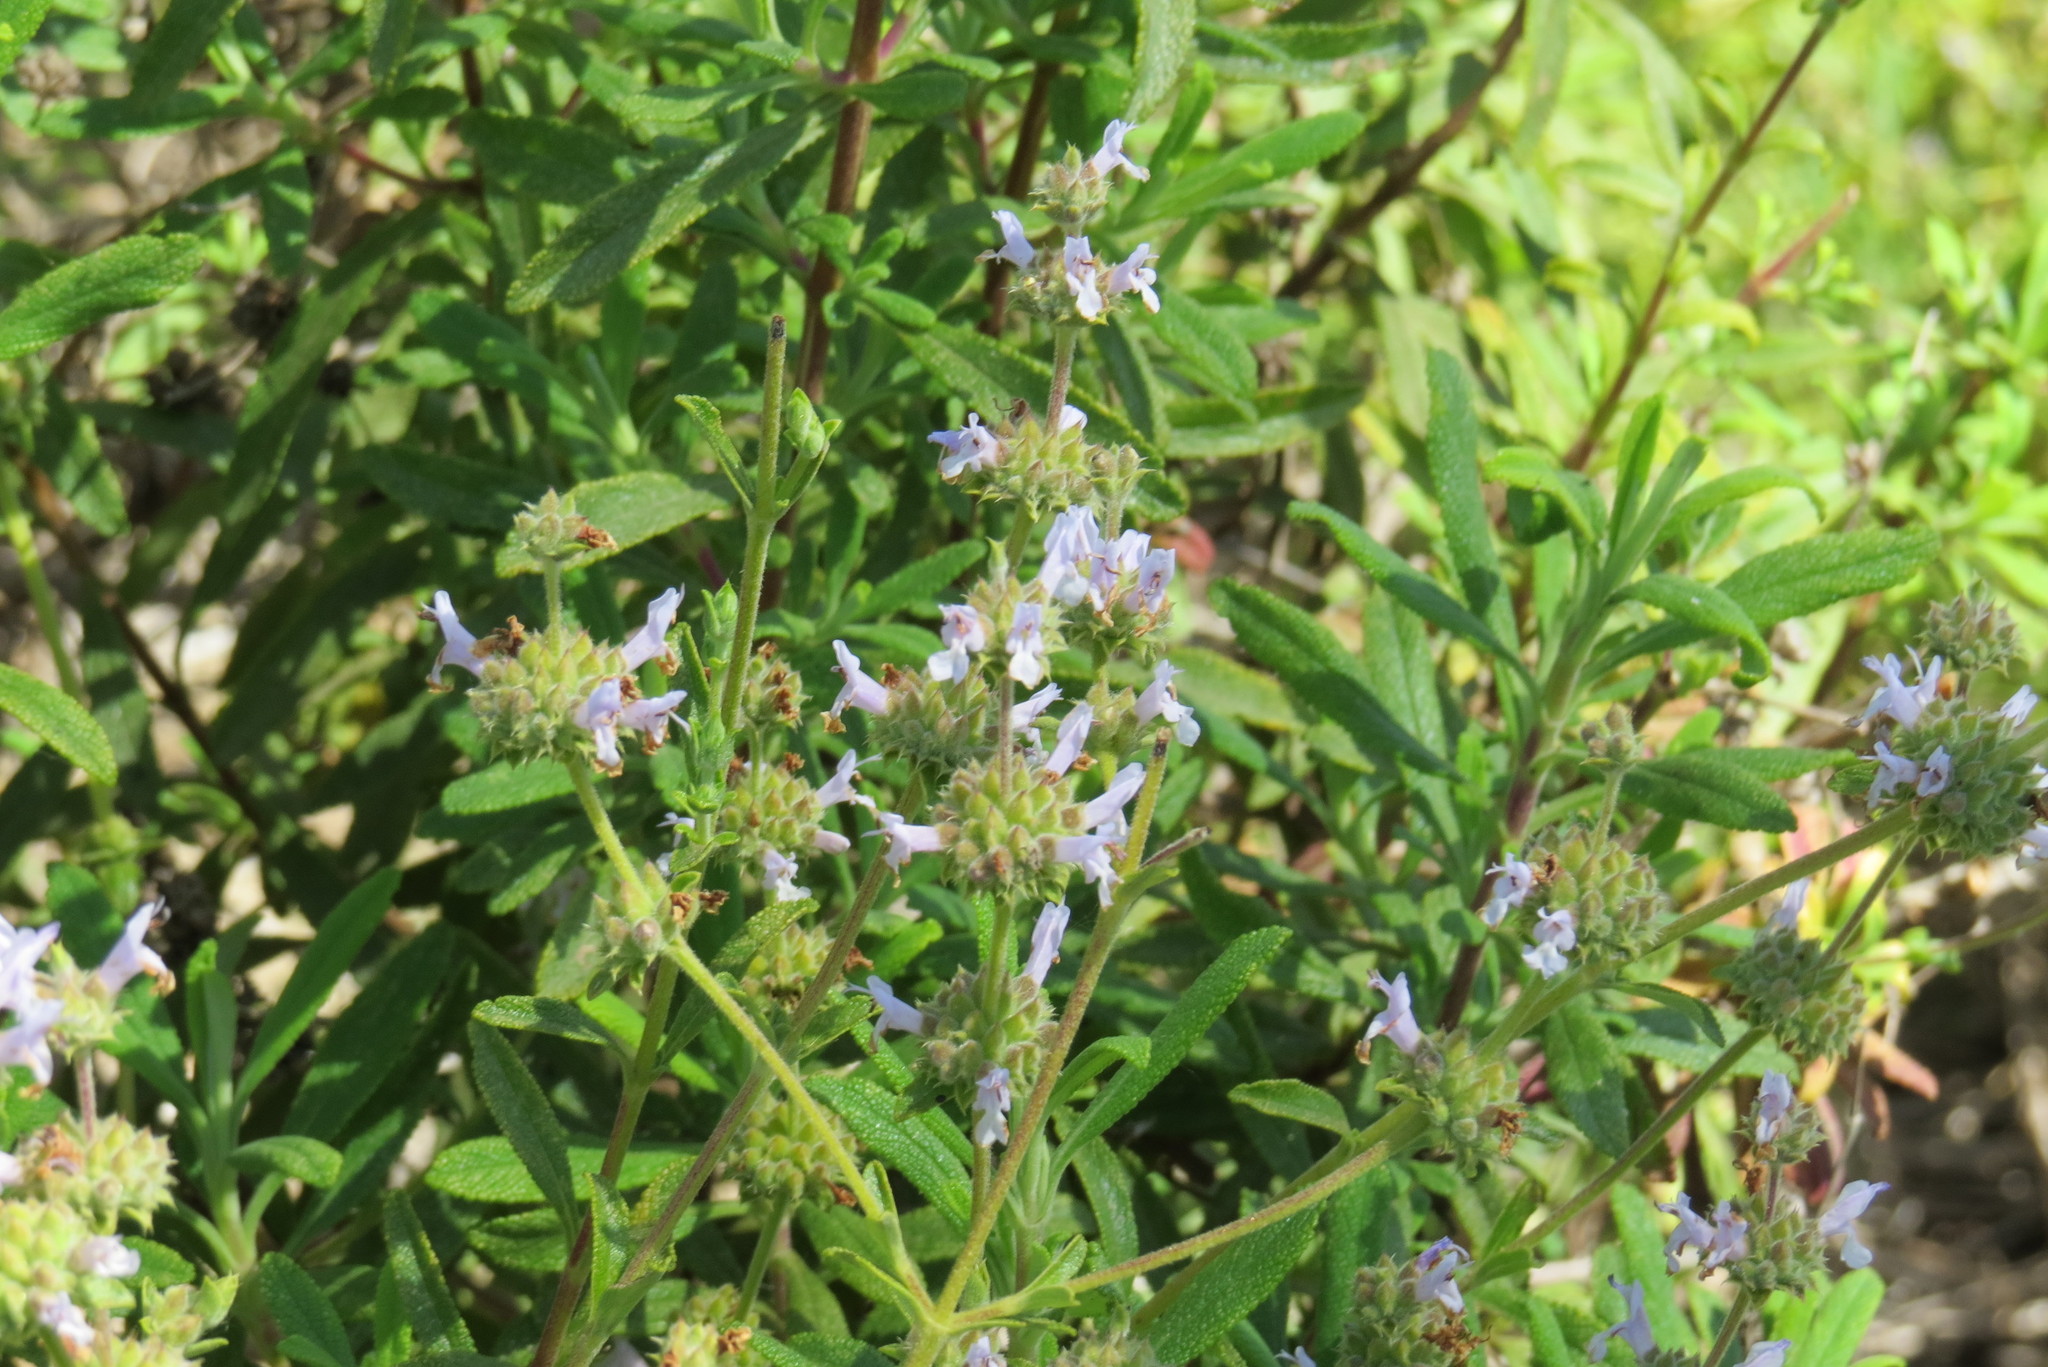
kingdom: Plantae
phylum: Tracheophyta
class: Magnoliopsida
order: Lamiales
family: Lamiaceae
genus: Salvia
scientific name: Salvia mellifera
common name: Black sage
